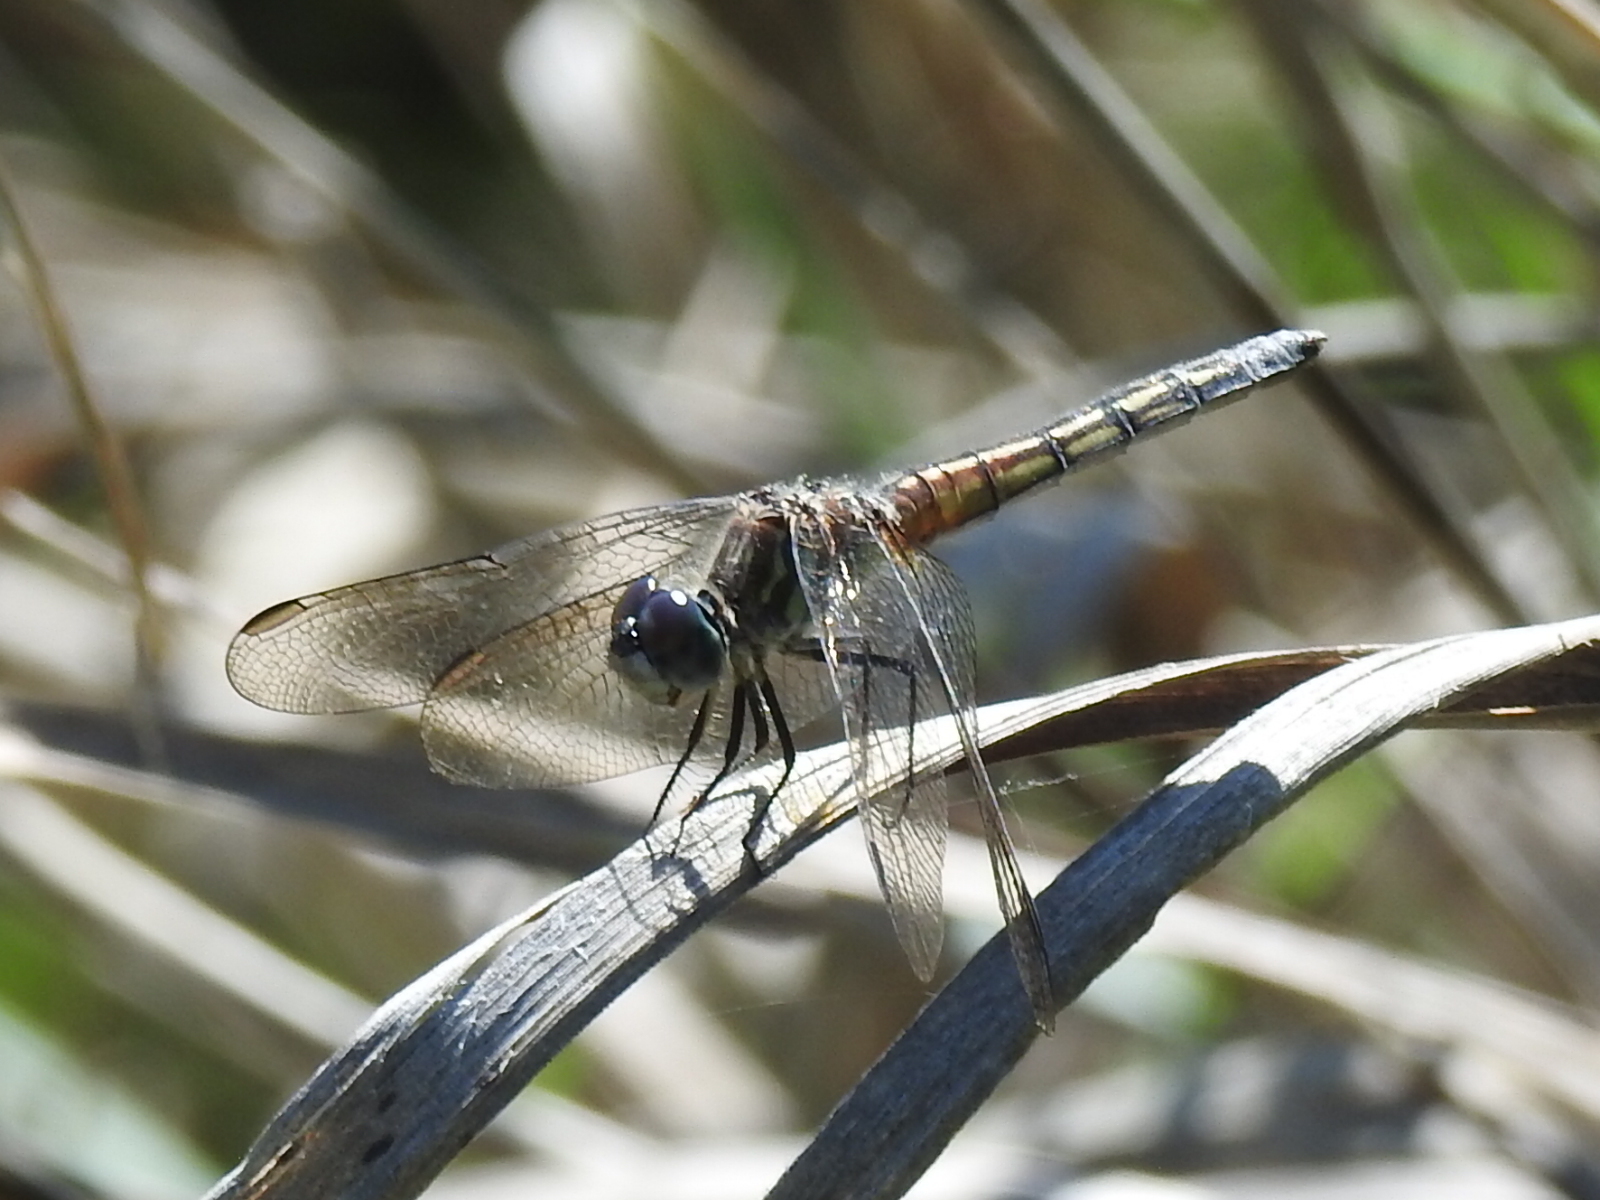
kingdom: Animalia
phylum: Arthropoda
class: Insecta
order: Odonata
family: Libellulidae
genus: Pachydiplax
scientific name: Pachydiplax longipennis
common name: Blue dasher
